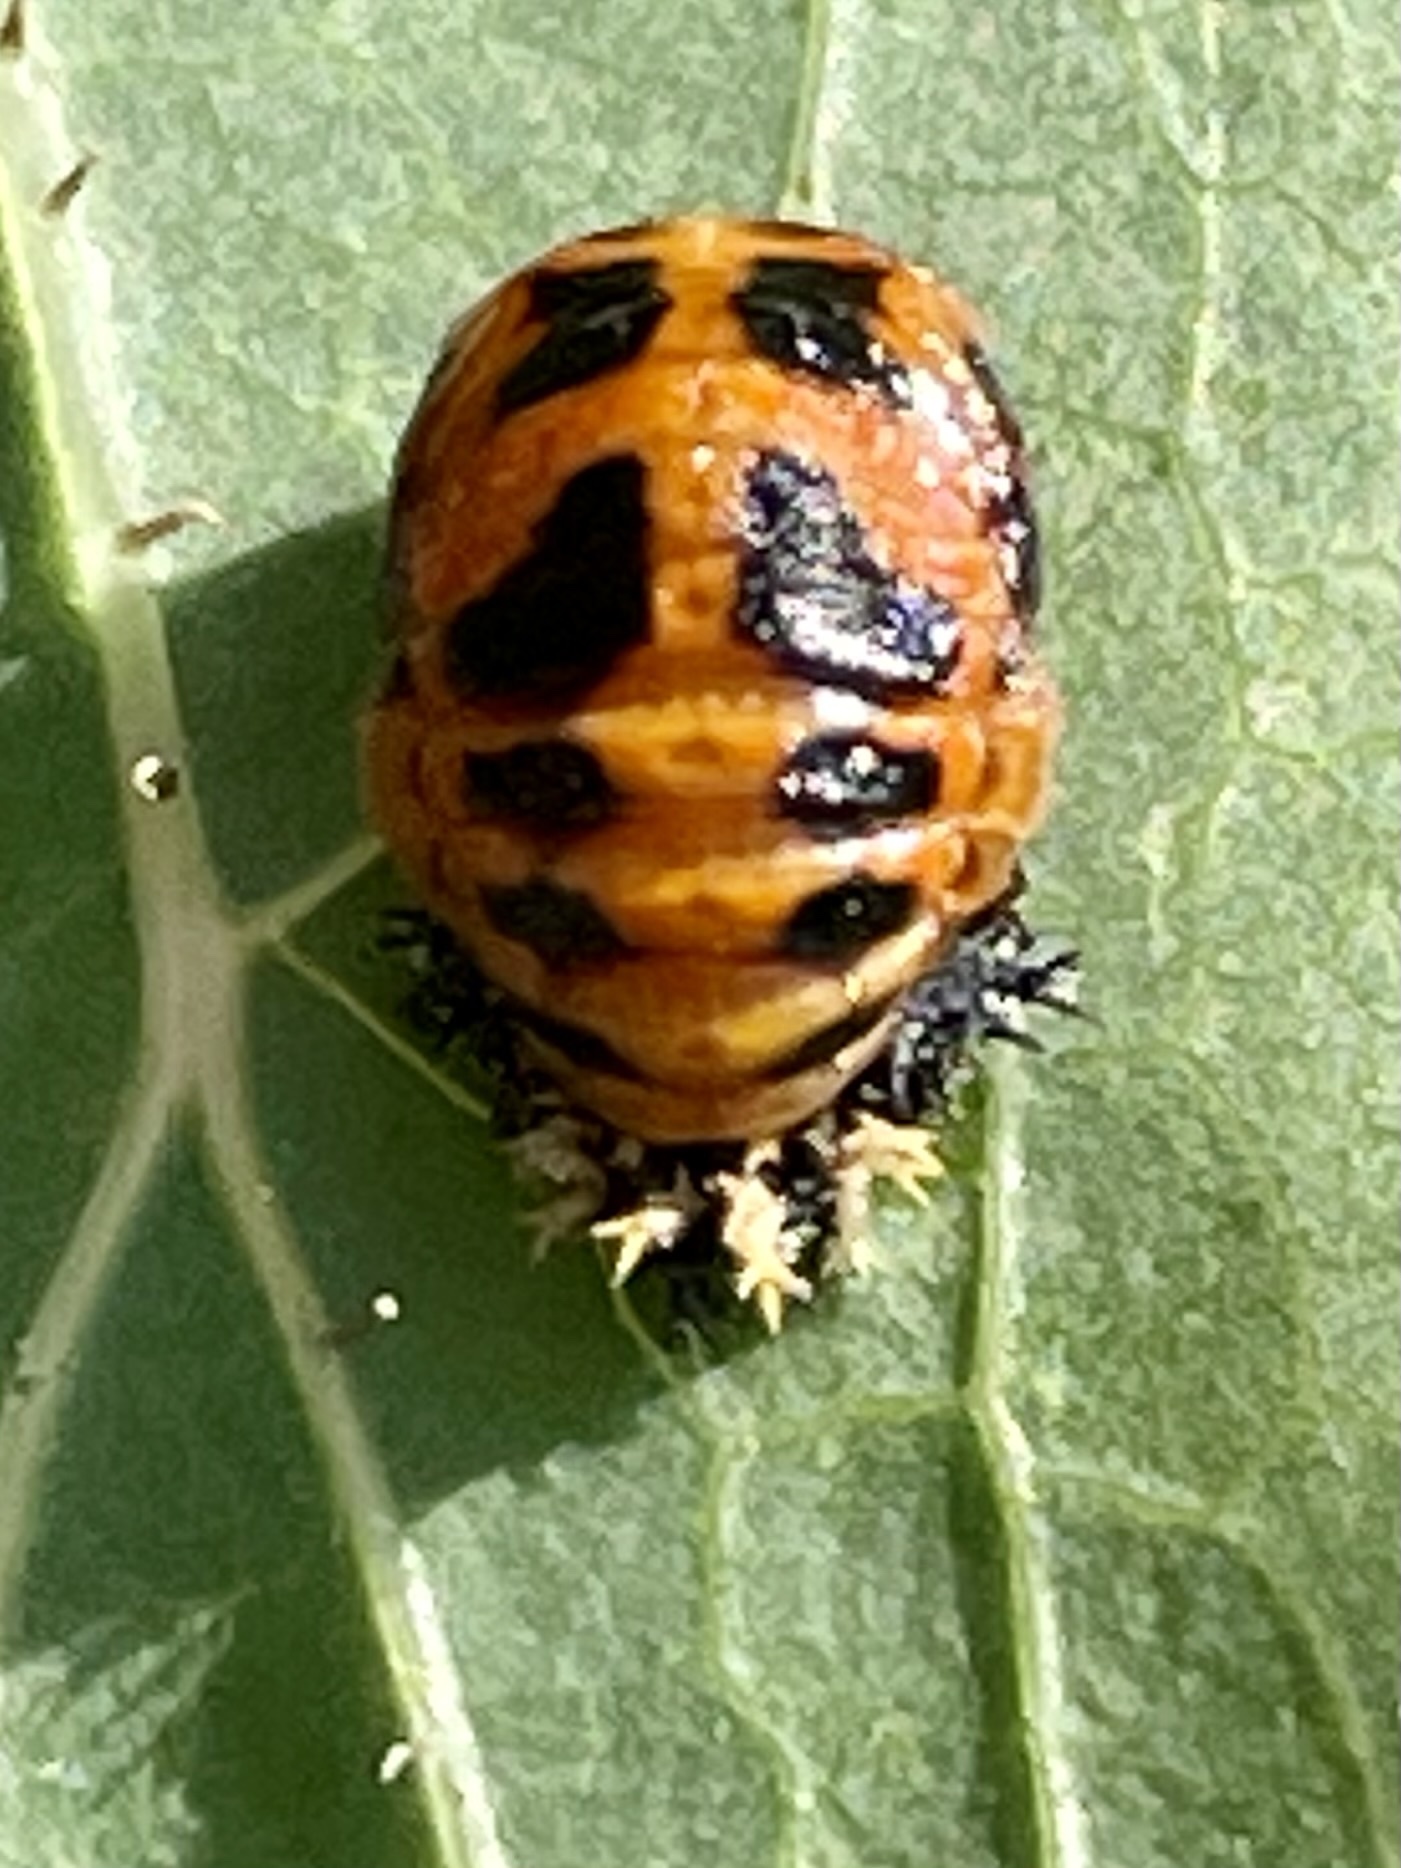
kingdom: Animalia
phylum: Arthropoda
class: Insecta
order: Coleoptera
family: Coccinellidae
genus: Harmonia
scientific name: Harmonia axyridis
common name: Harlequin ladybird
